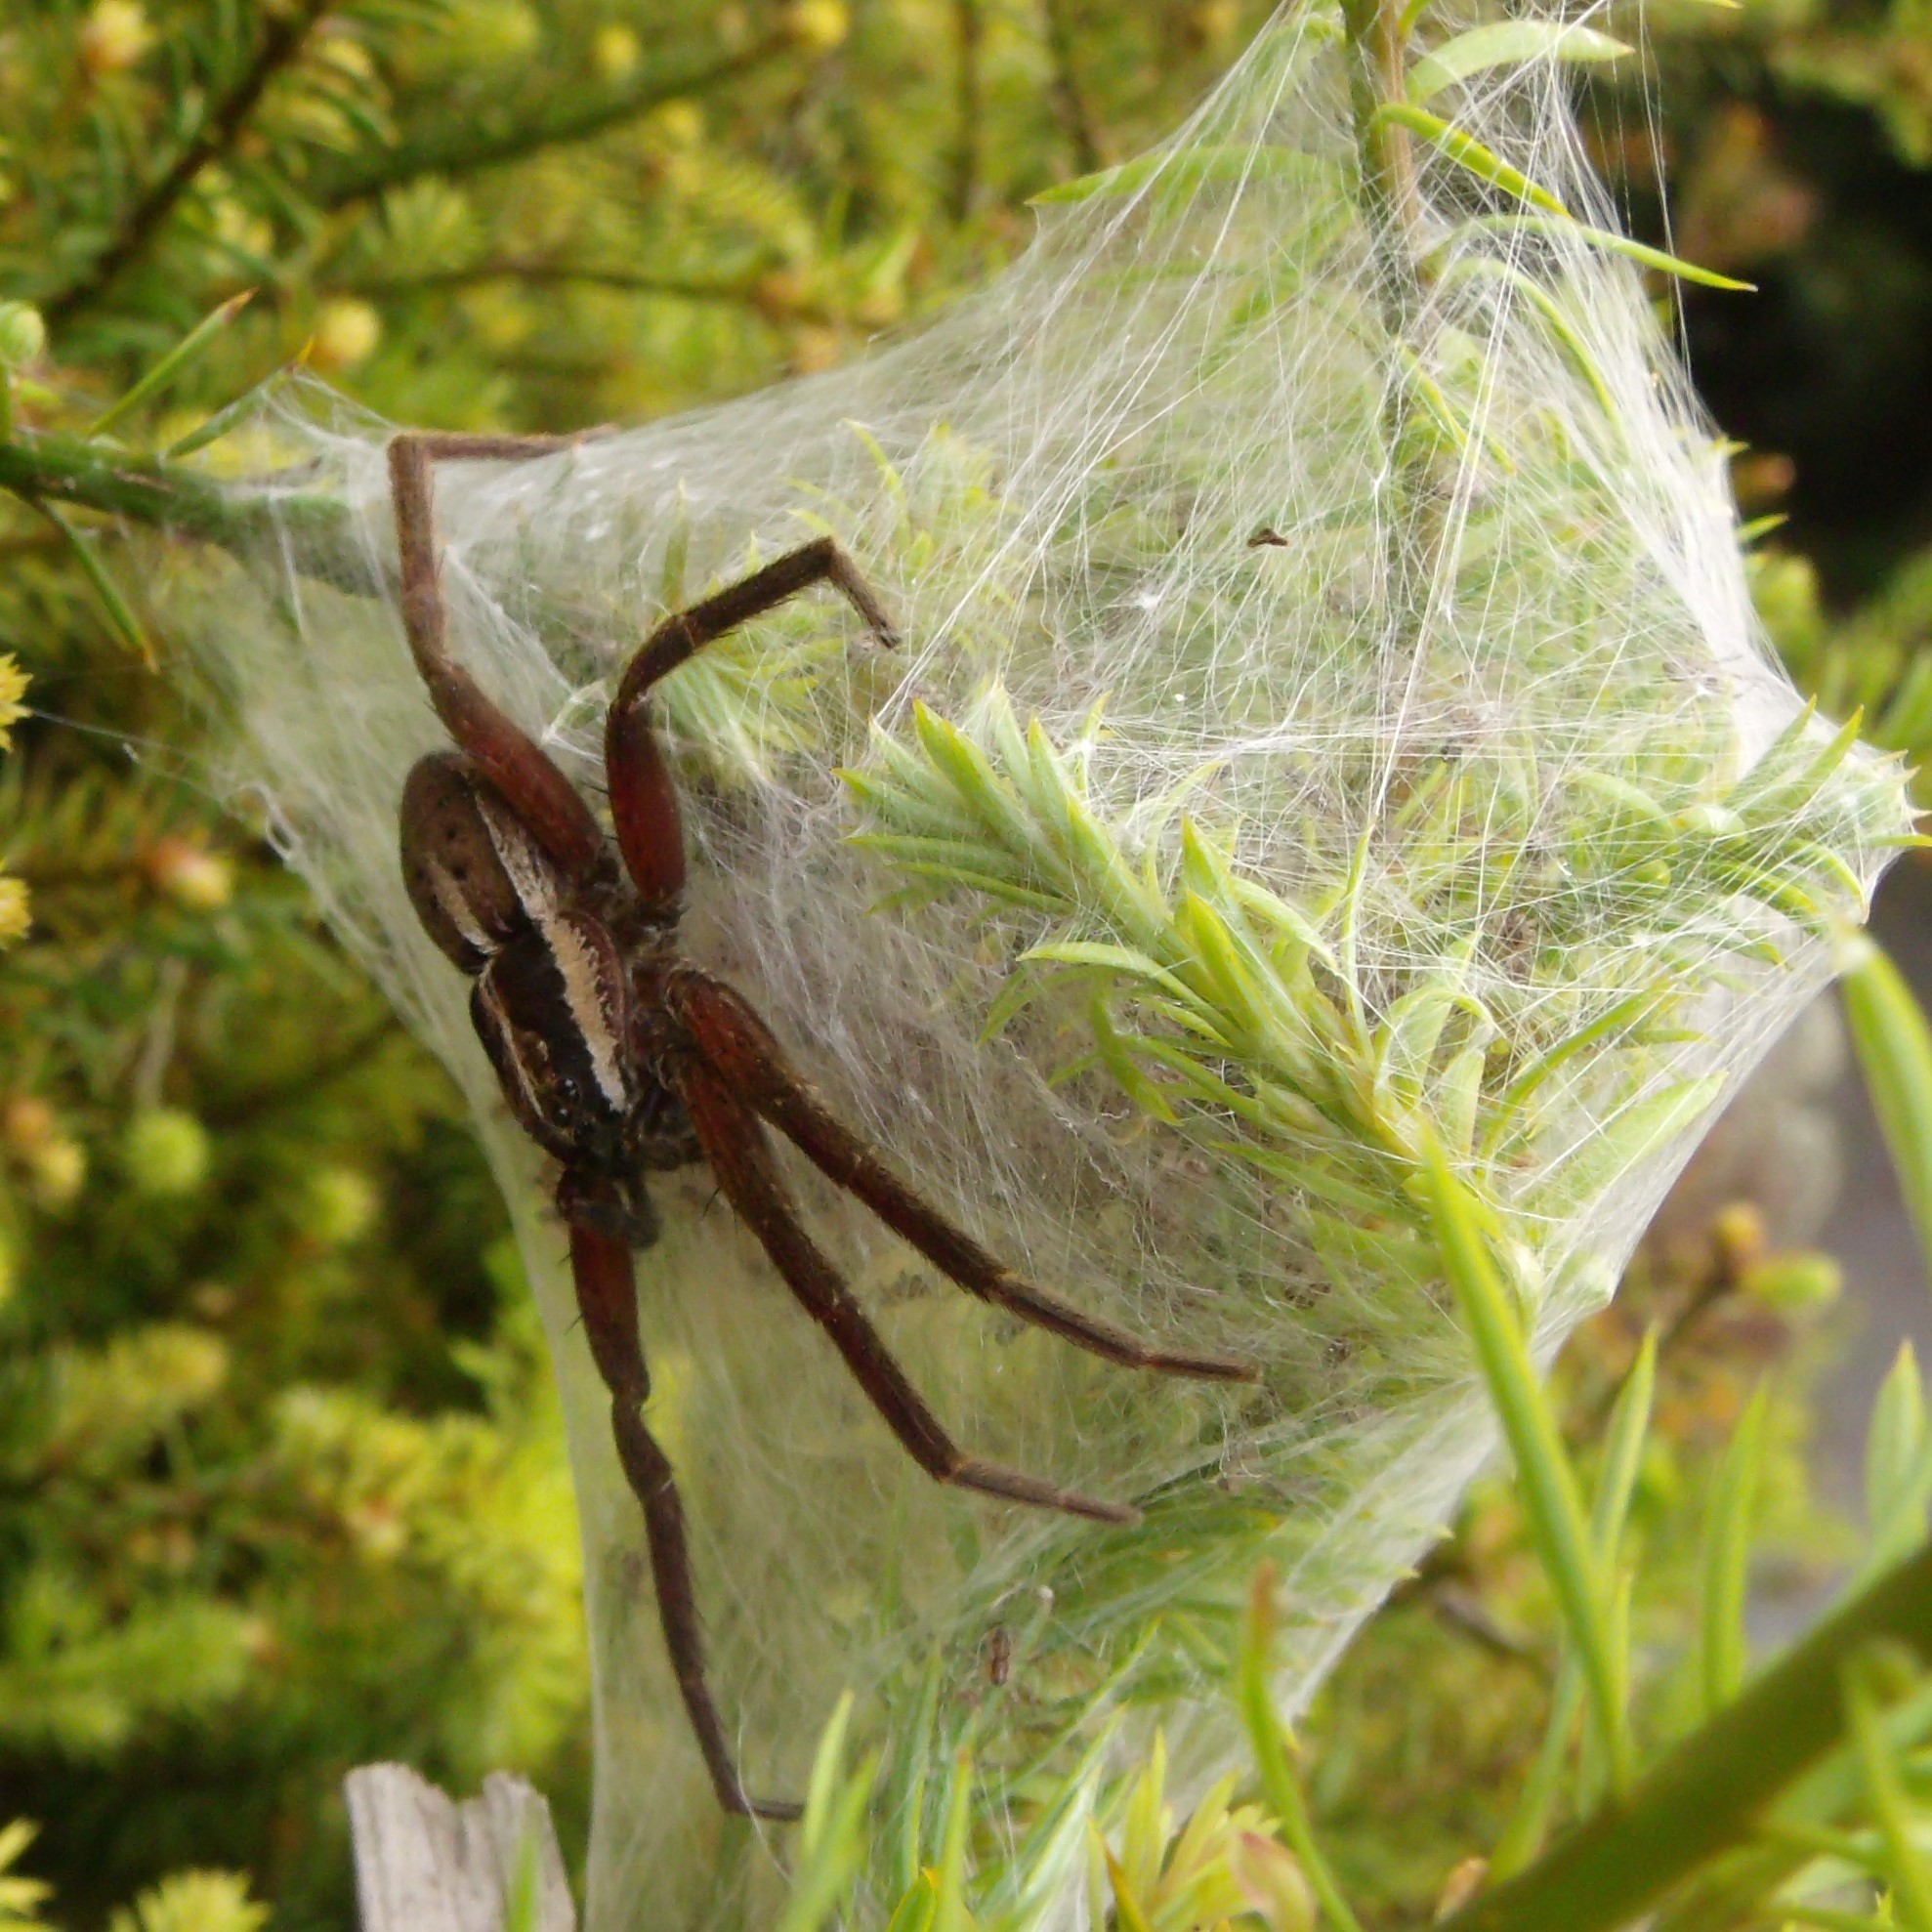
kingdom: Animalia
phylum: Arthropoda
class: Arachnida
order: Araneae
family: Pisauridae
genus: Dolomedes
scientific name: Dolomedes minor
